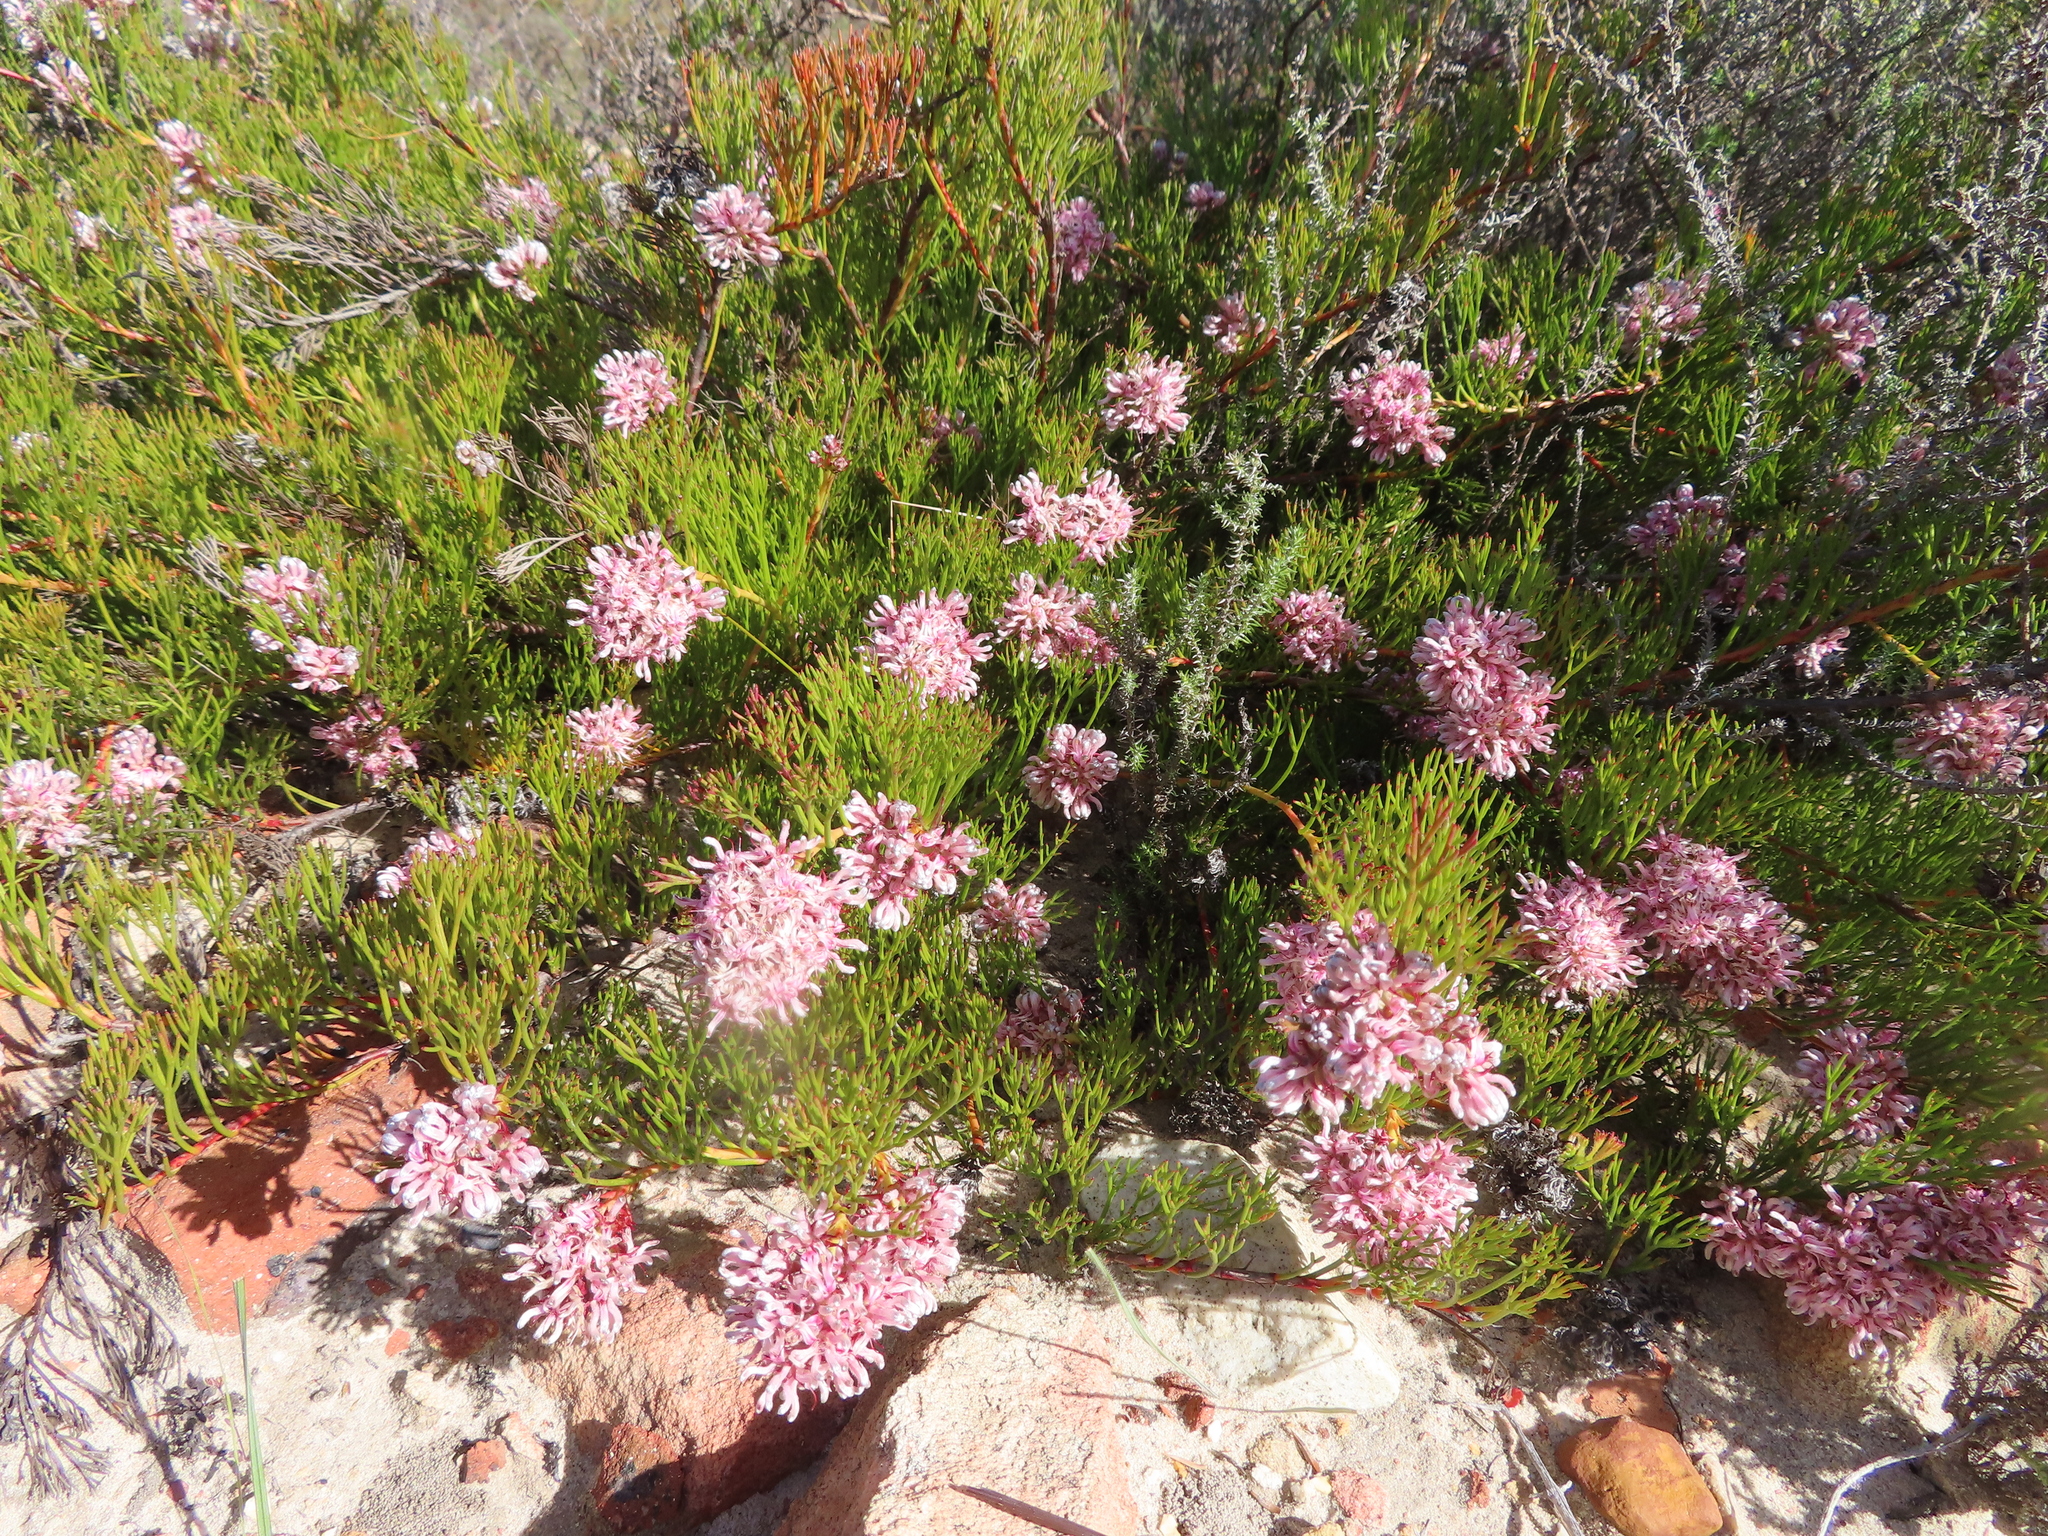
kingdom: Plantae
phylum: Tracheophyta
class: Magnoliopsida
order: Proteales
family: Proteaceae
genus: Serruria
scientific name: Serruria rubricaulis
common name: Red-stem spiderhead
